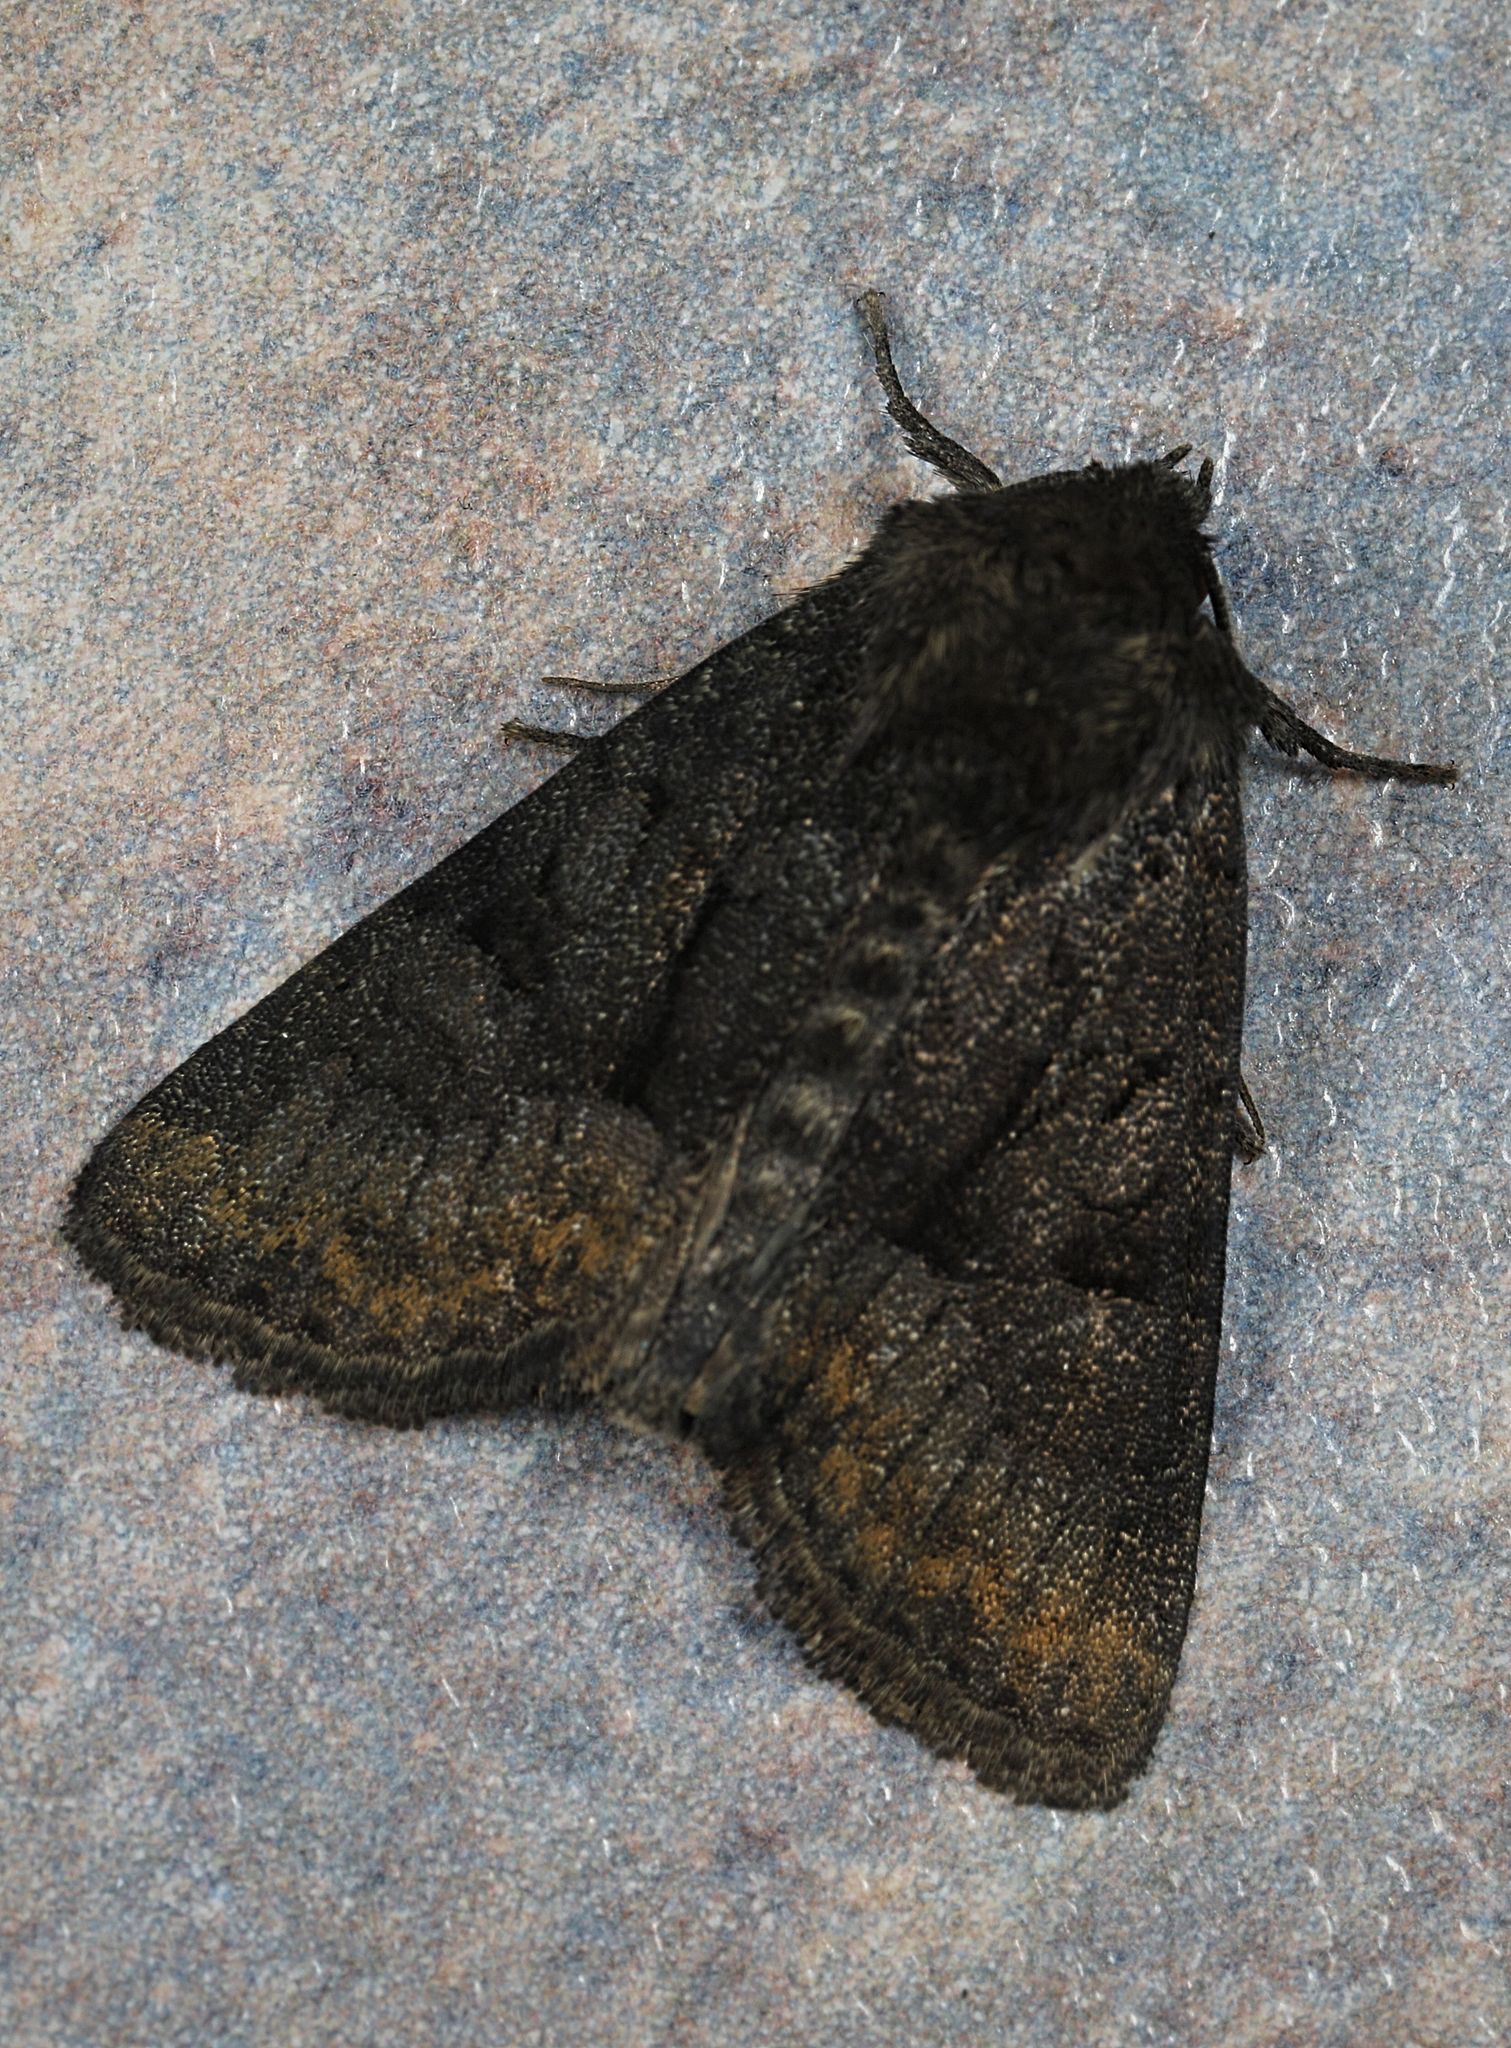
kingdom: Animalia
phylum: Arthropoda
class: Insecta
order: Lepidoptera
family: Noctuidae
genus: Mesoligia
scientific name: Mesoligia furuncula
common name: Cloaked minor
